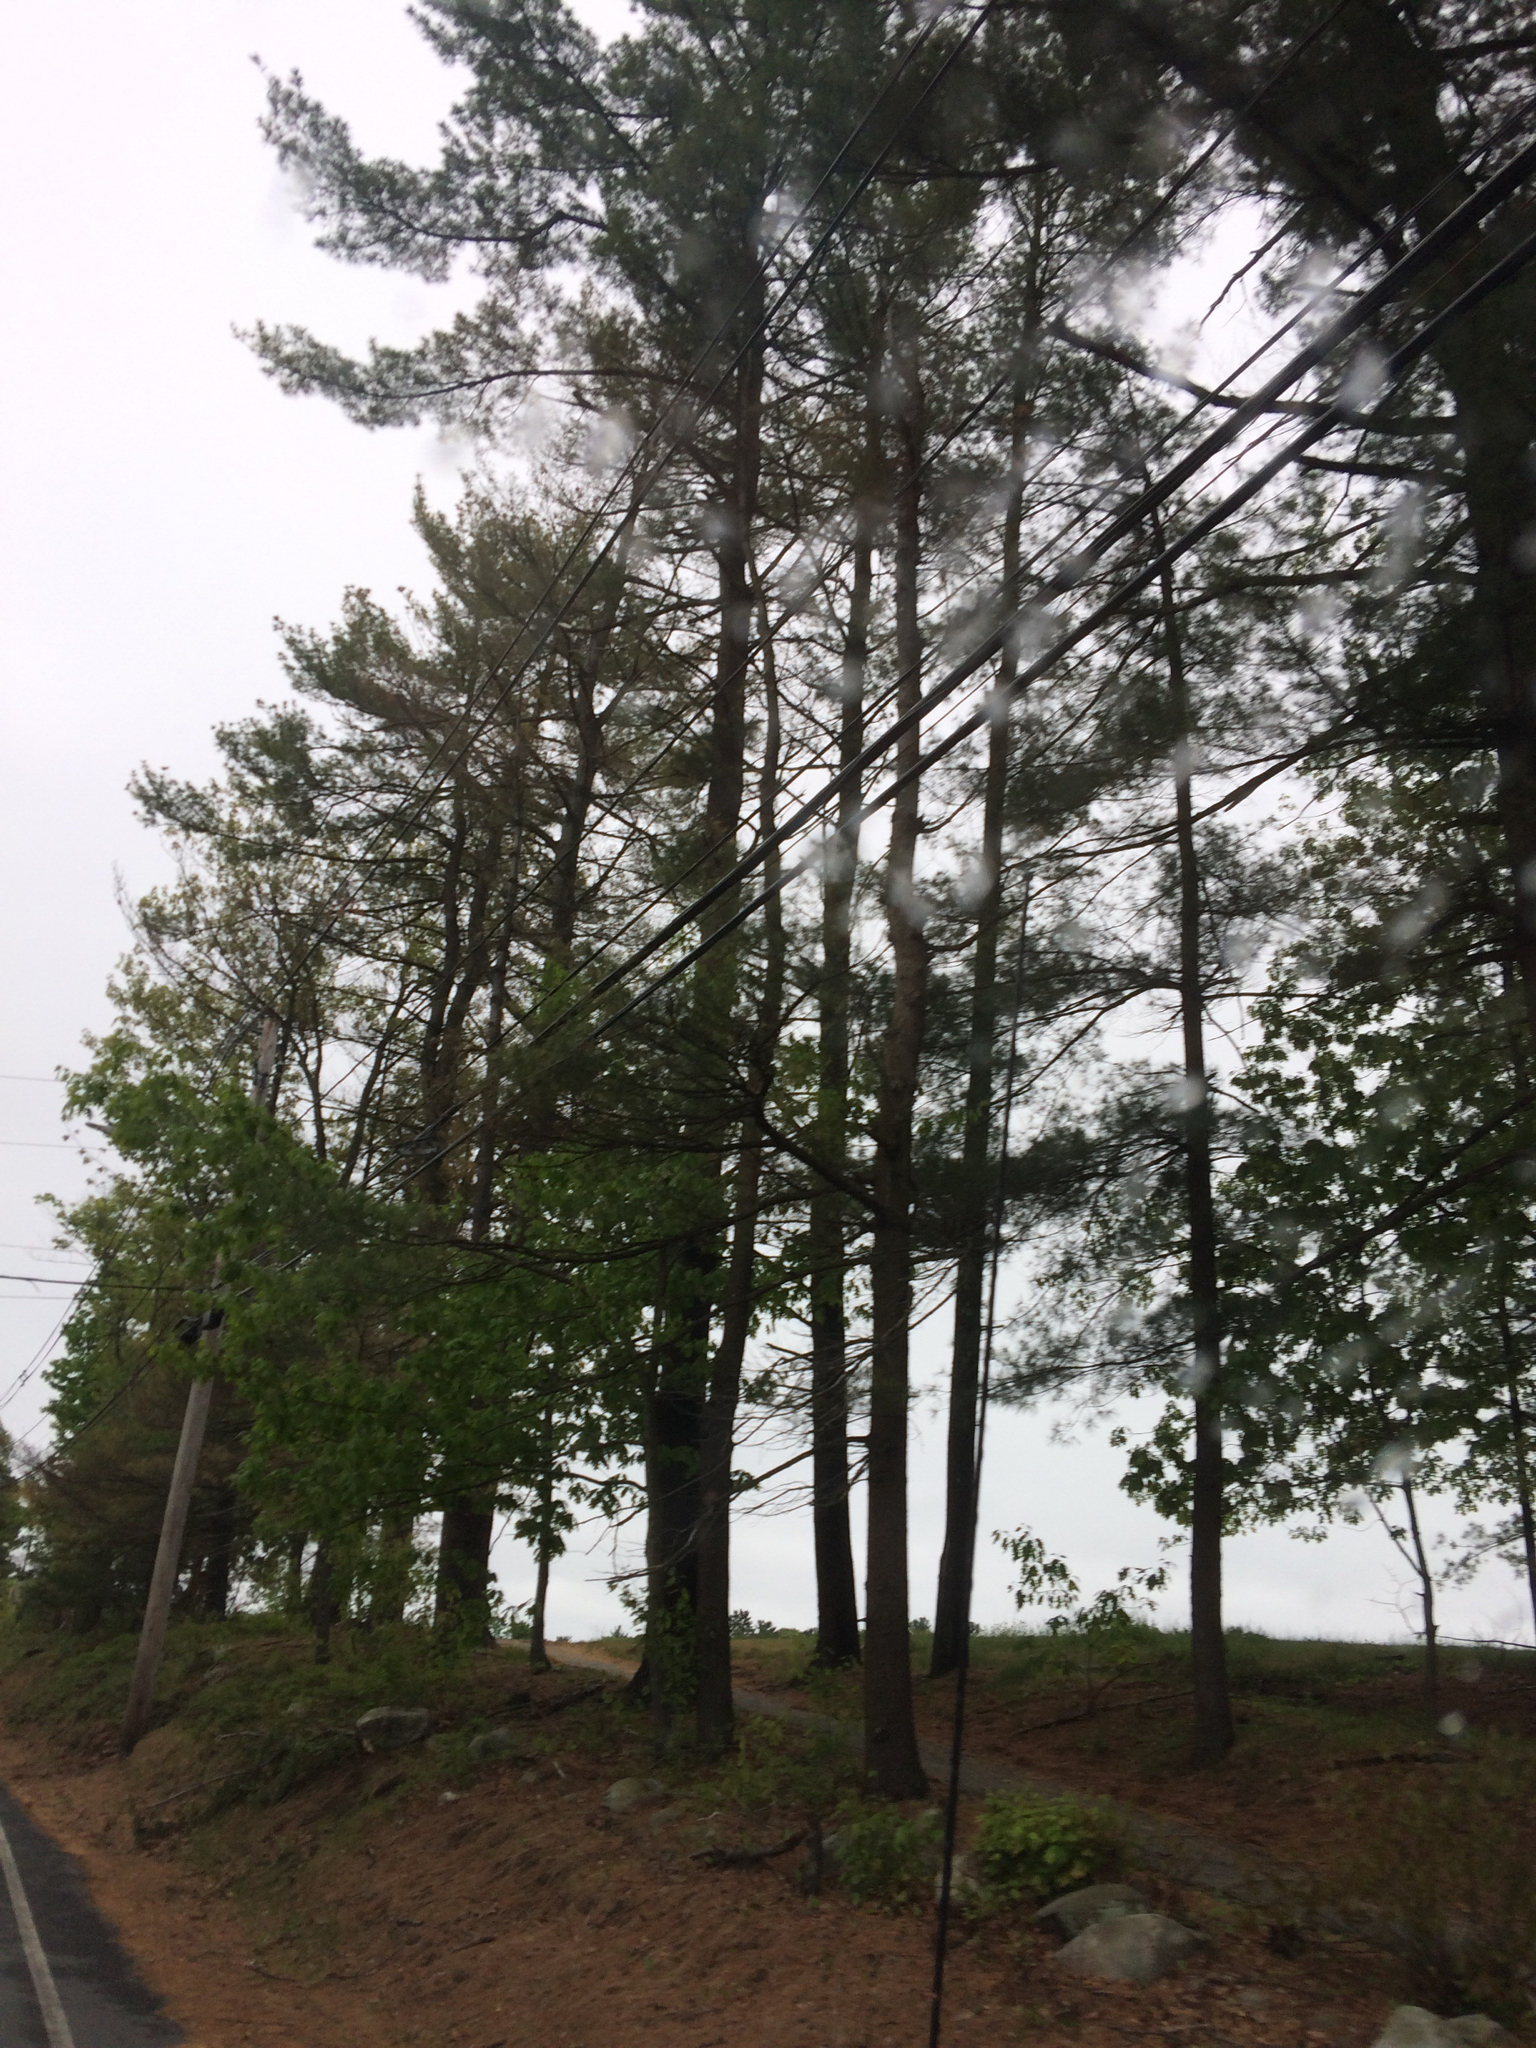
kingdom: Plantae
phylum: Tracheophyta
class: Pinopsida
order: Pinales
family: Pinaceae
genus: Pinus
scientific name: Pinus strobus
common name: Weymouth pine
